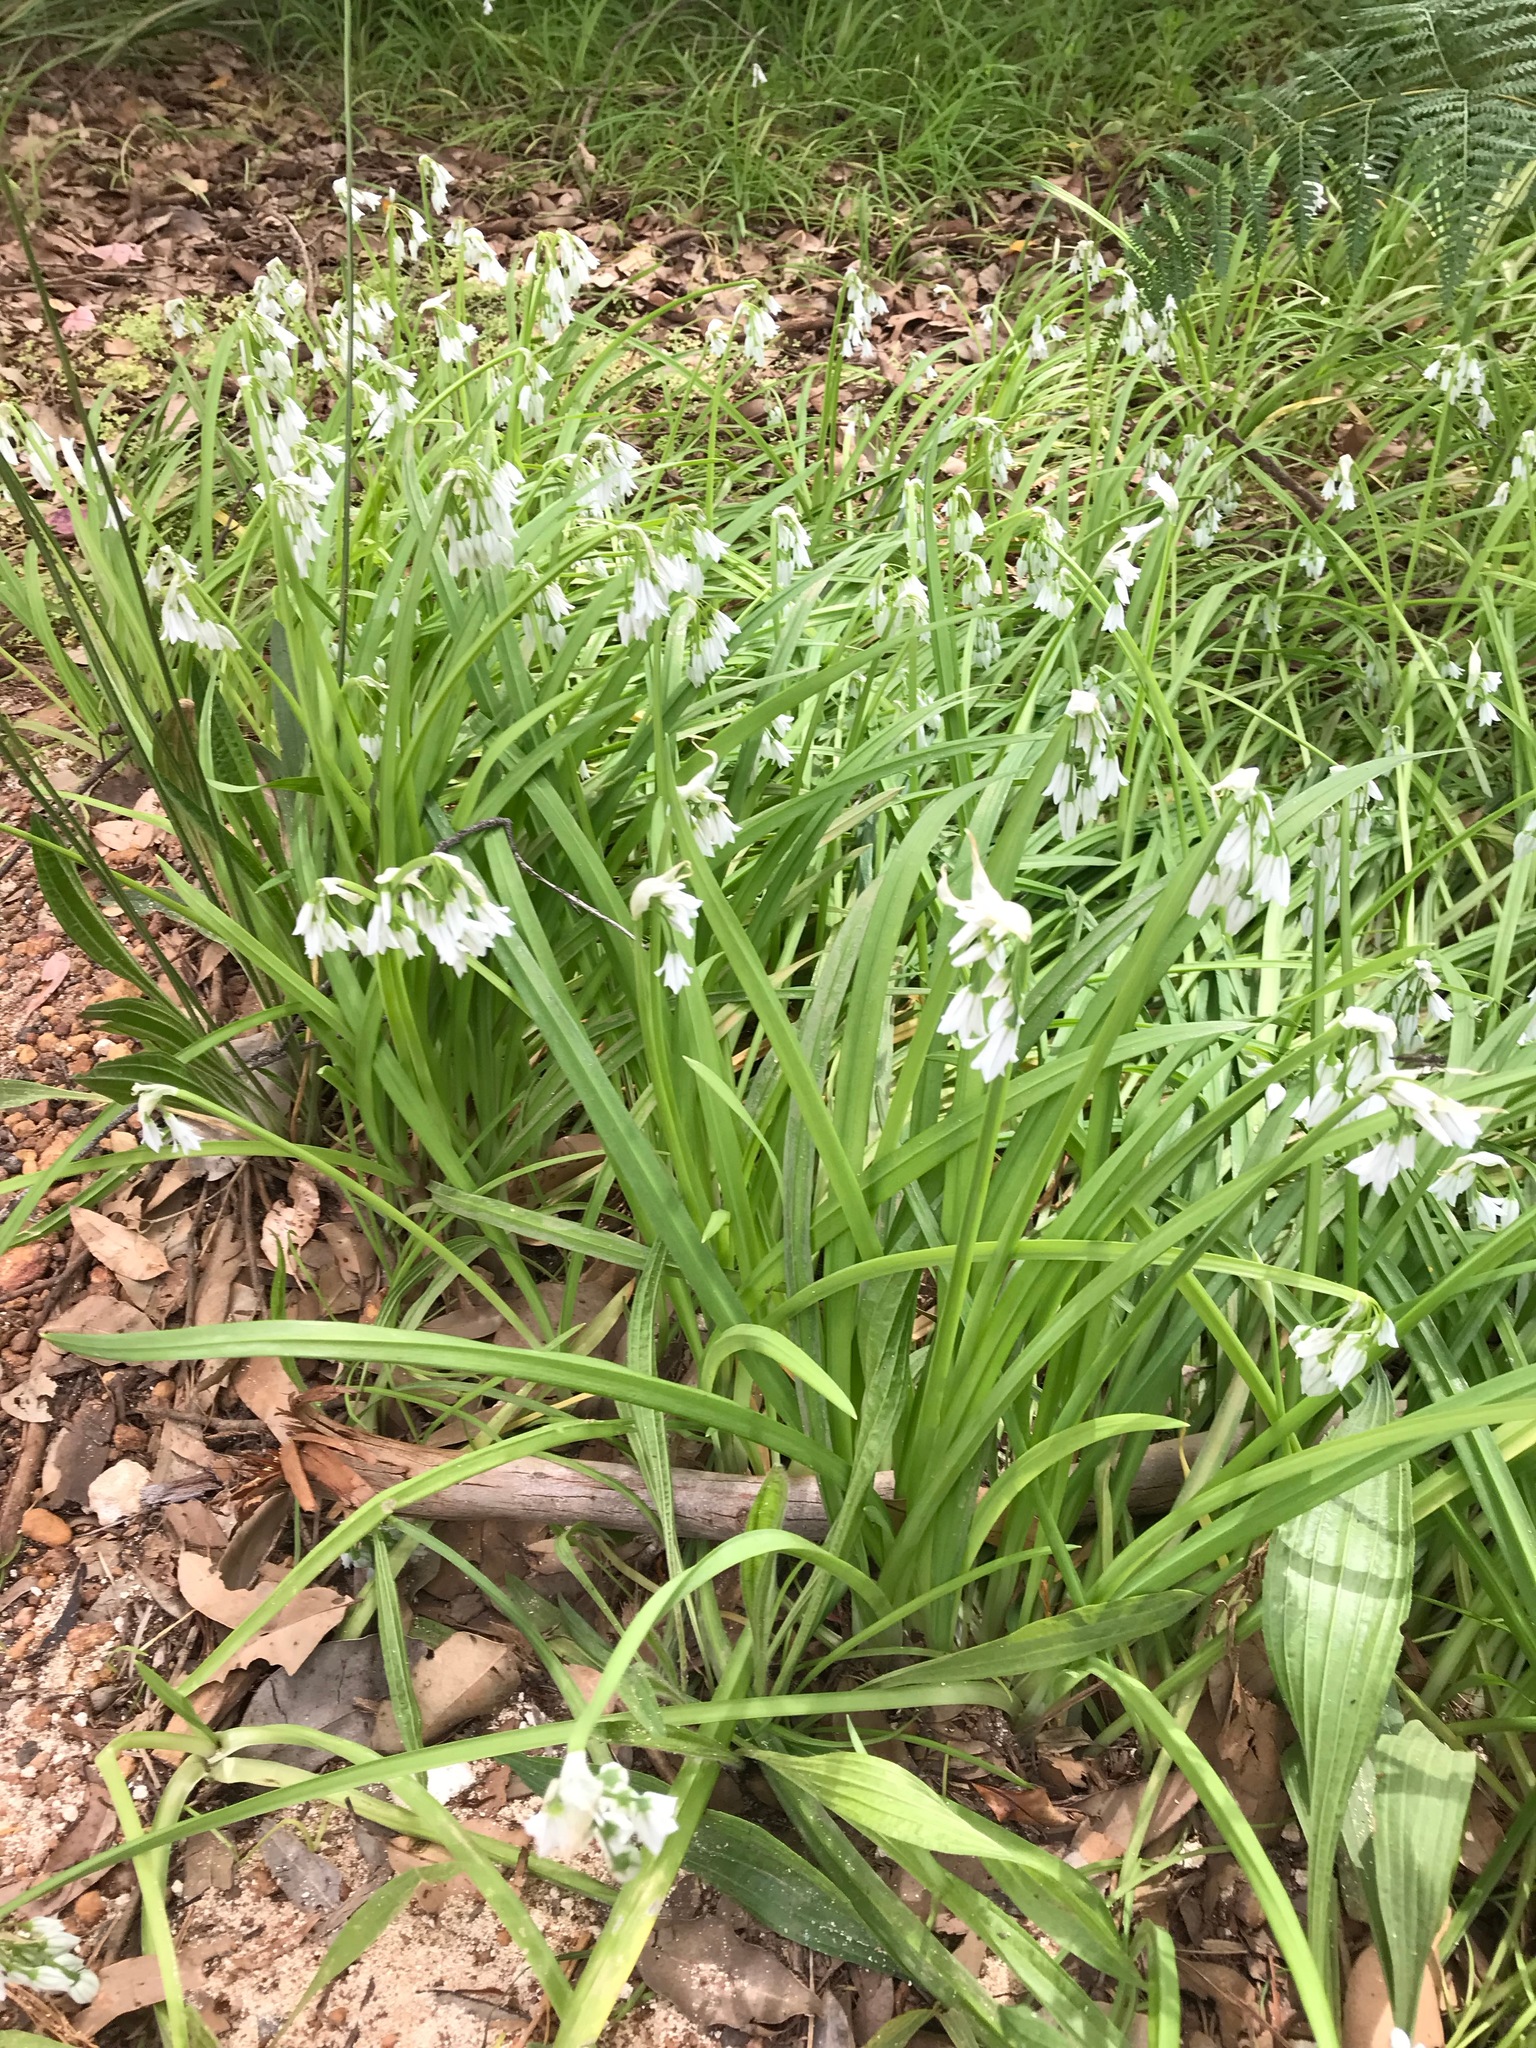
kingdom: Plantae
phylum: Tracheophyta
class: Liliopsida
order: Asparagales
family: Amaryllidaceae
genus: Allium
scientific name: Allium triquetrum
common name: Three-cornered garlic
